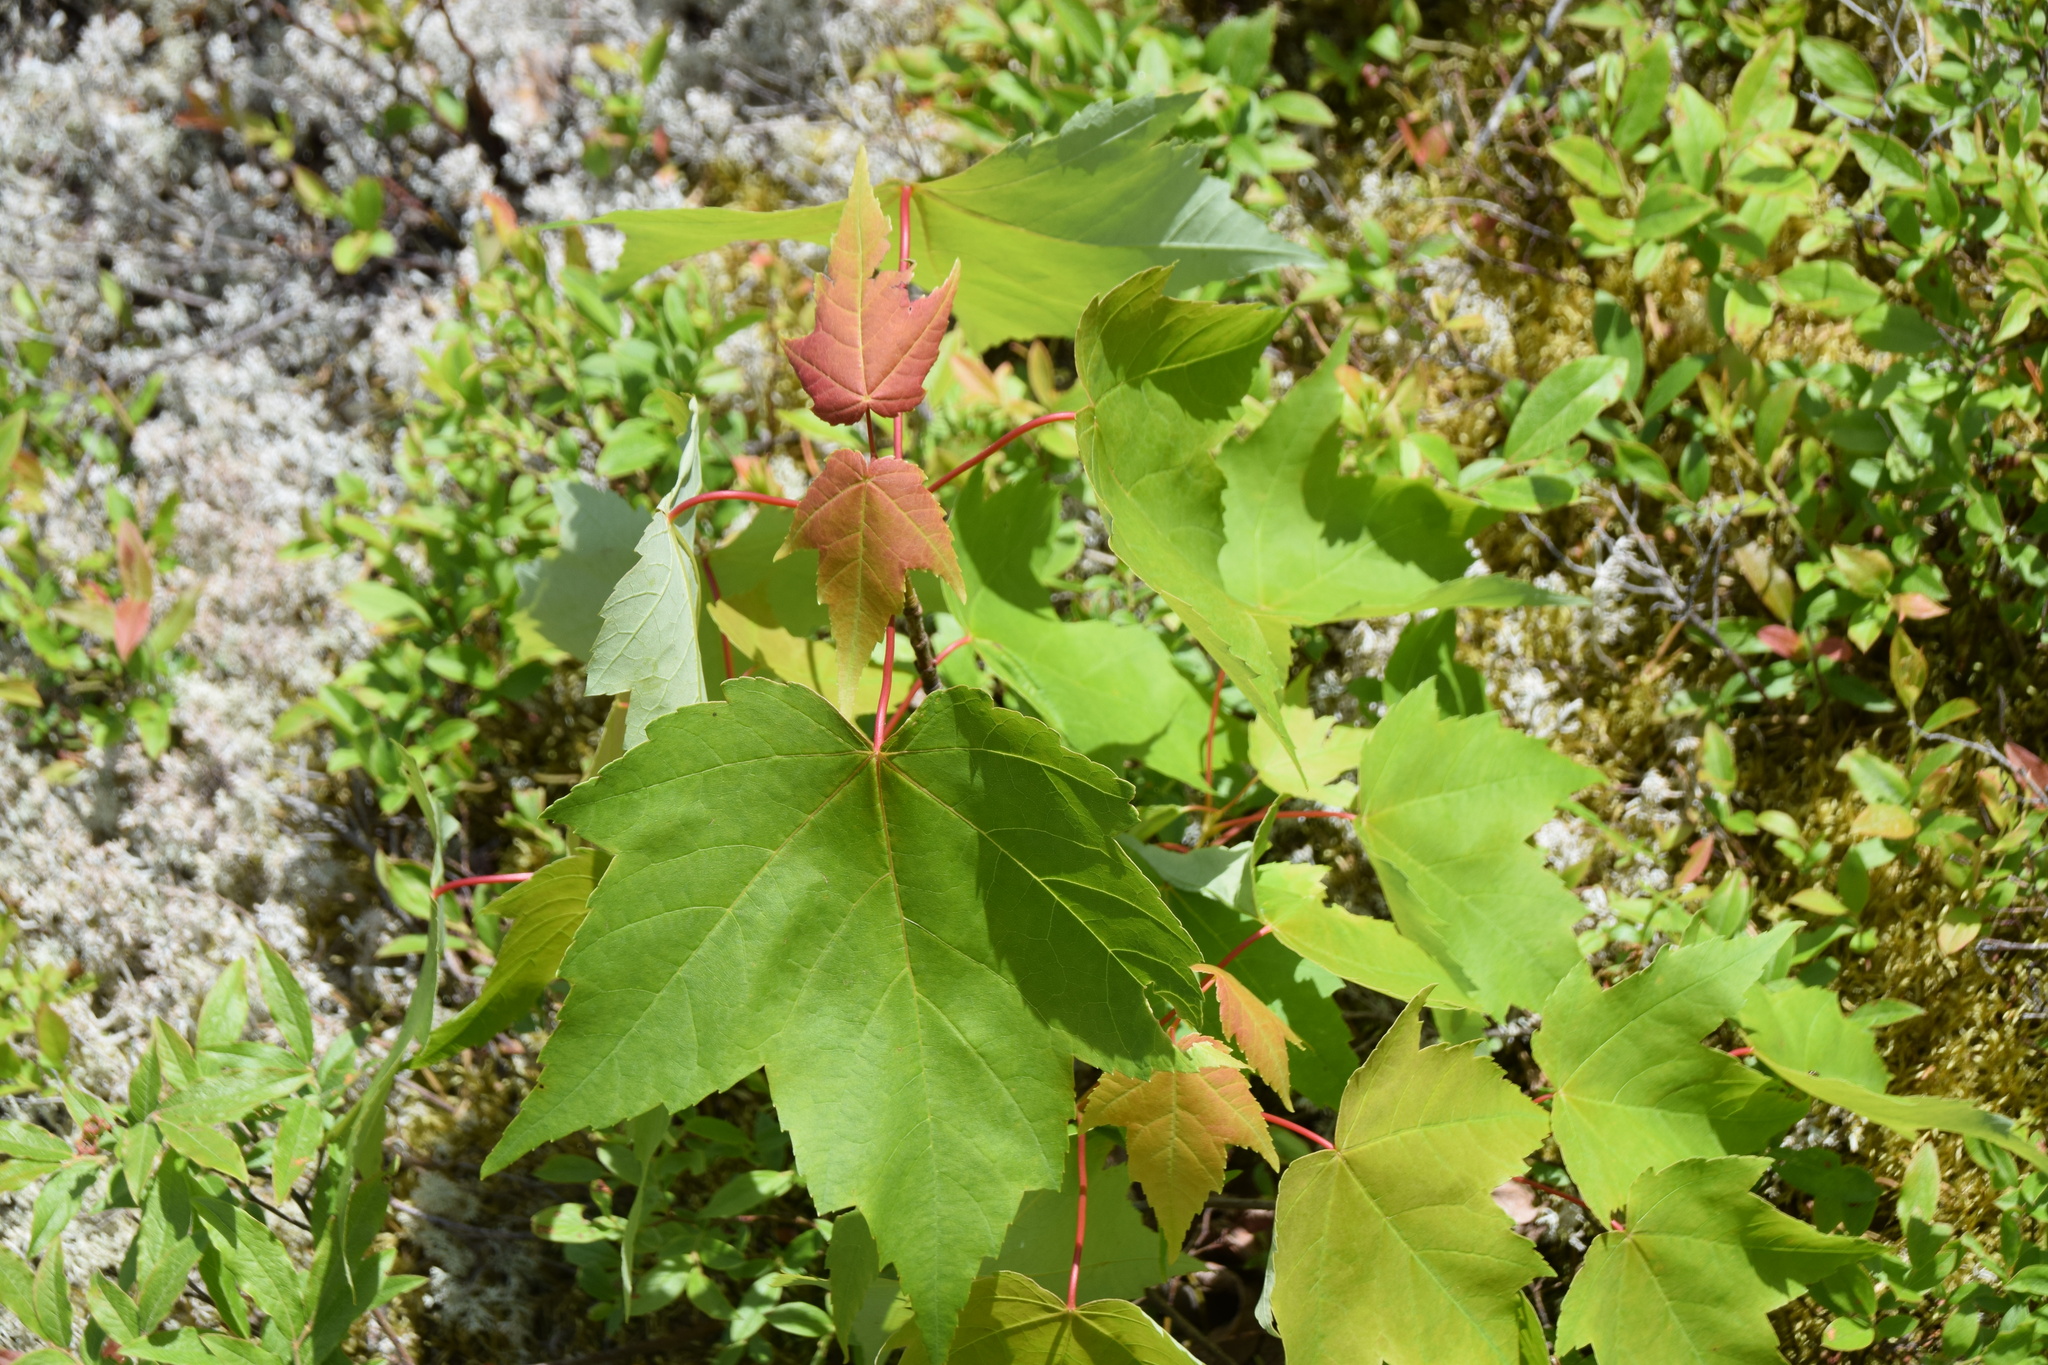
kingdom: Plantae
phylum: Tracheophyta
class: Magnoliopsida
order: Sapindales
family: Sapindaceae
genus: Acer
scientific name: Acer rubrum
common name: Red maple
